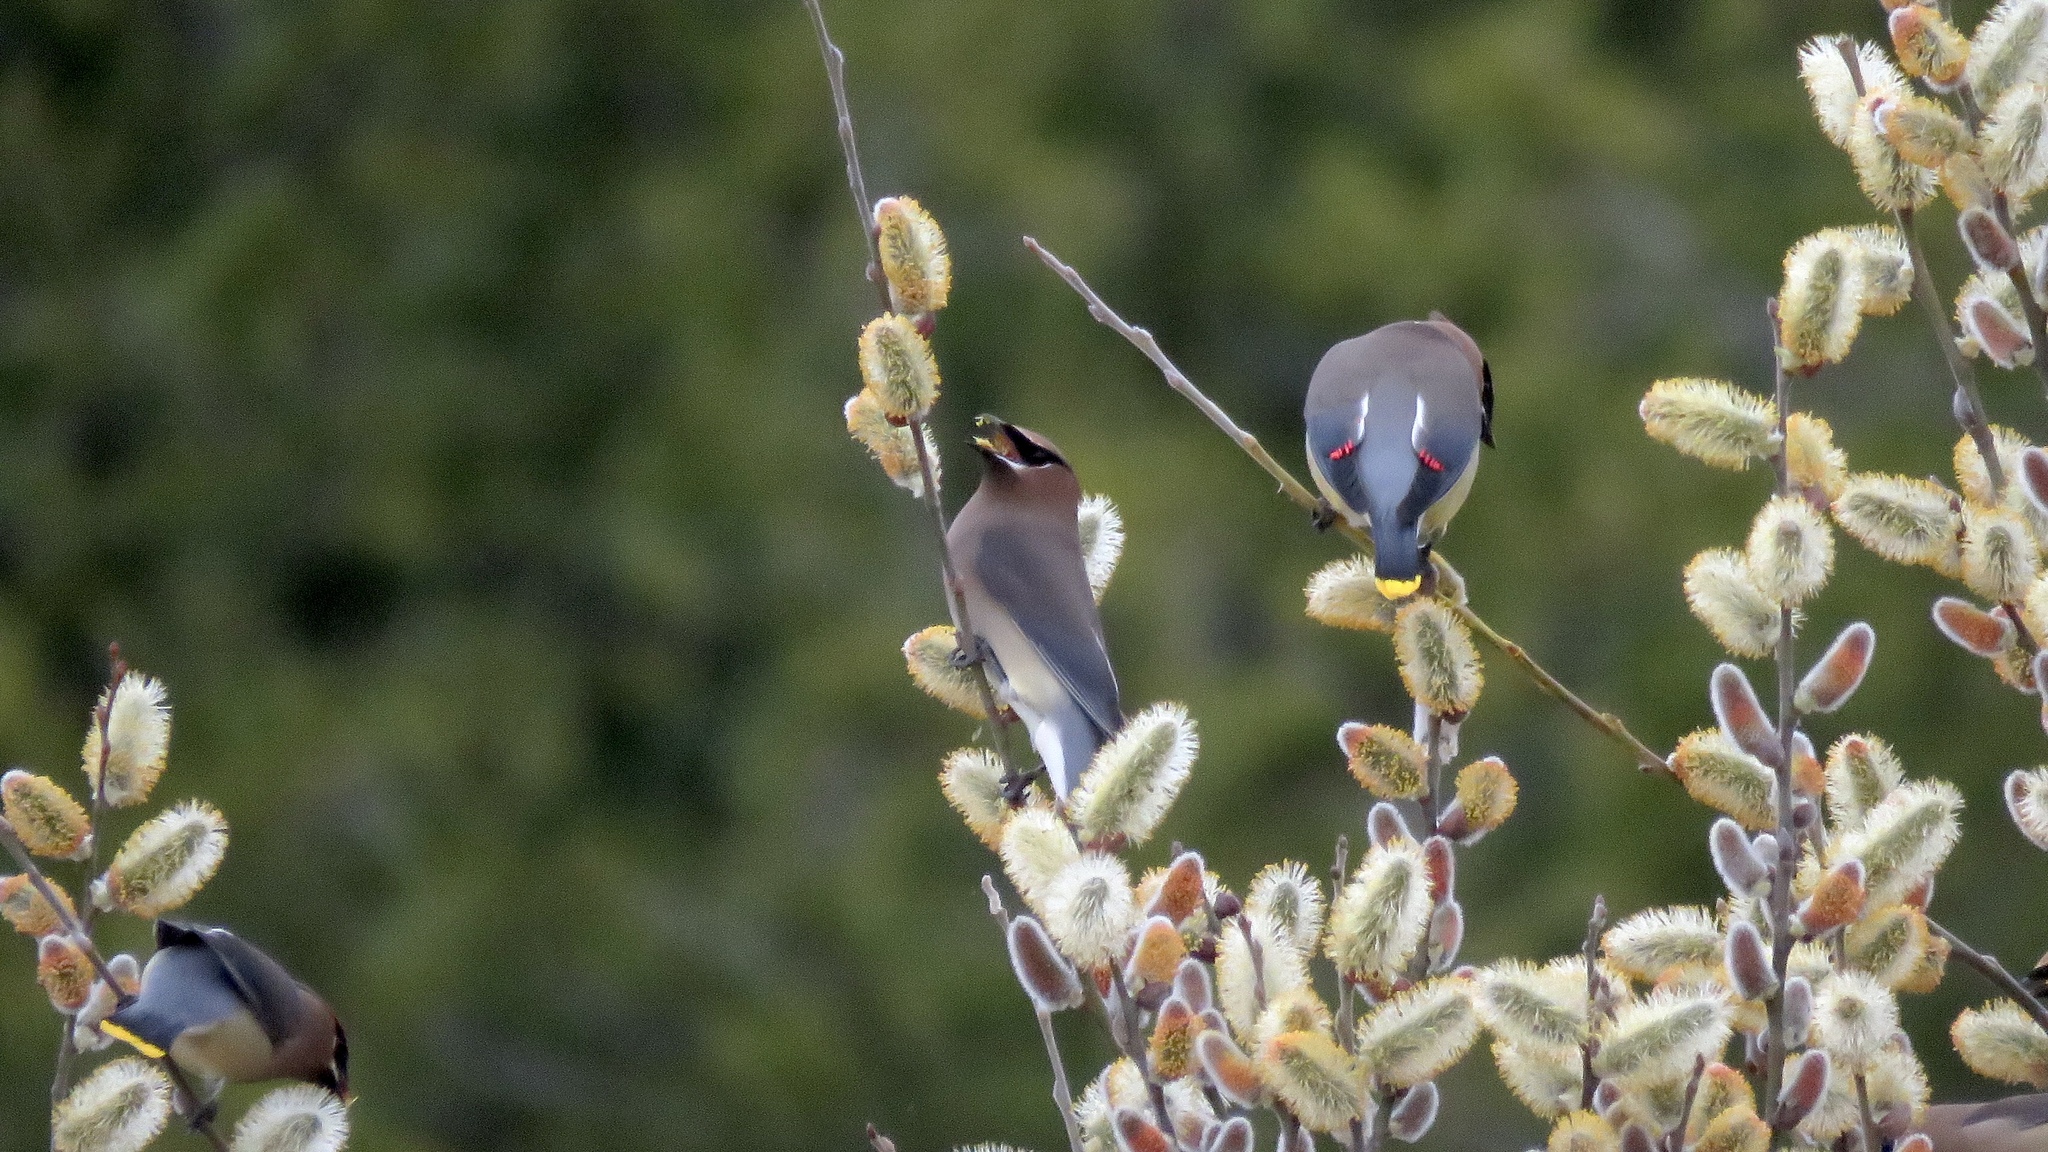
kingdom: Animalia
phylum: Chordata
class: Aves
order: Passeriformes
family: Bombycillidae
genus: Bombycilla
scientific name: Bombycilla cedrorum
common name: Cedar waxwing
